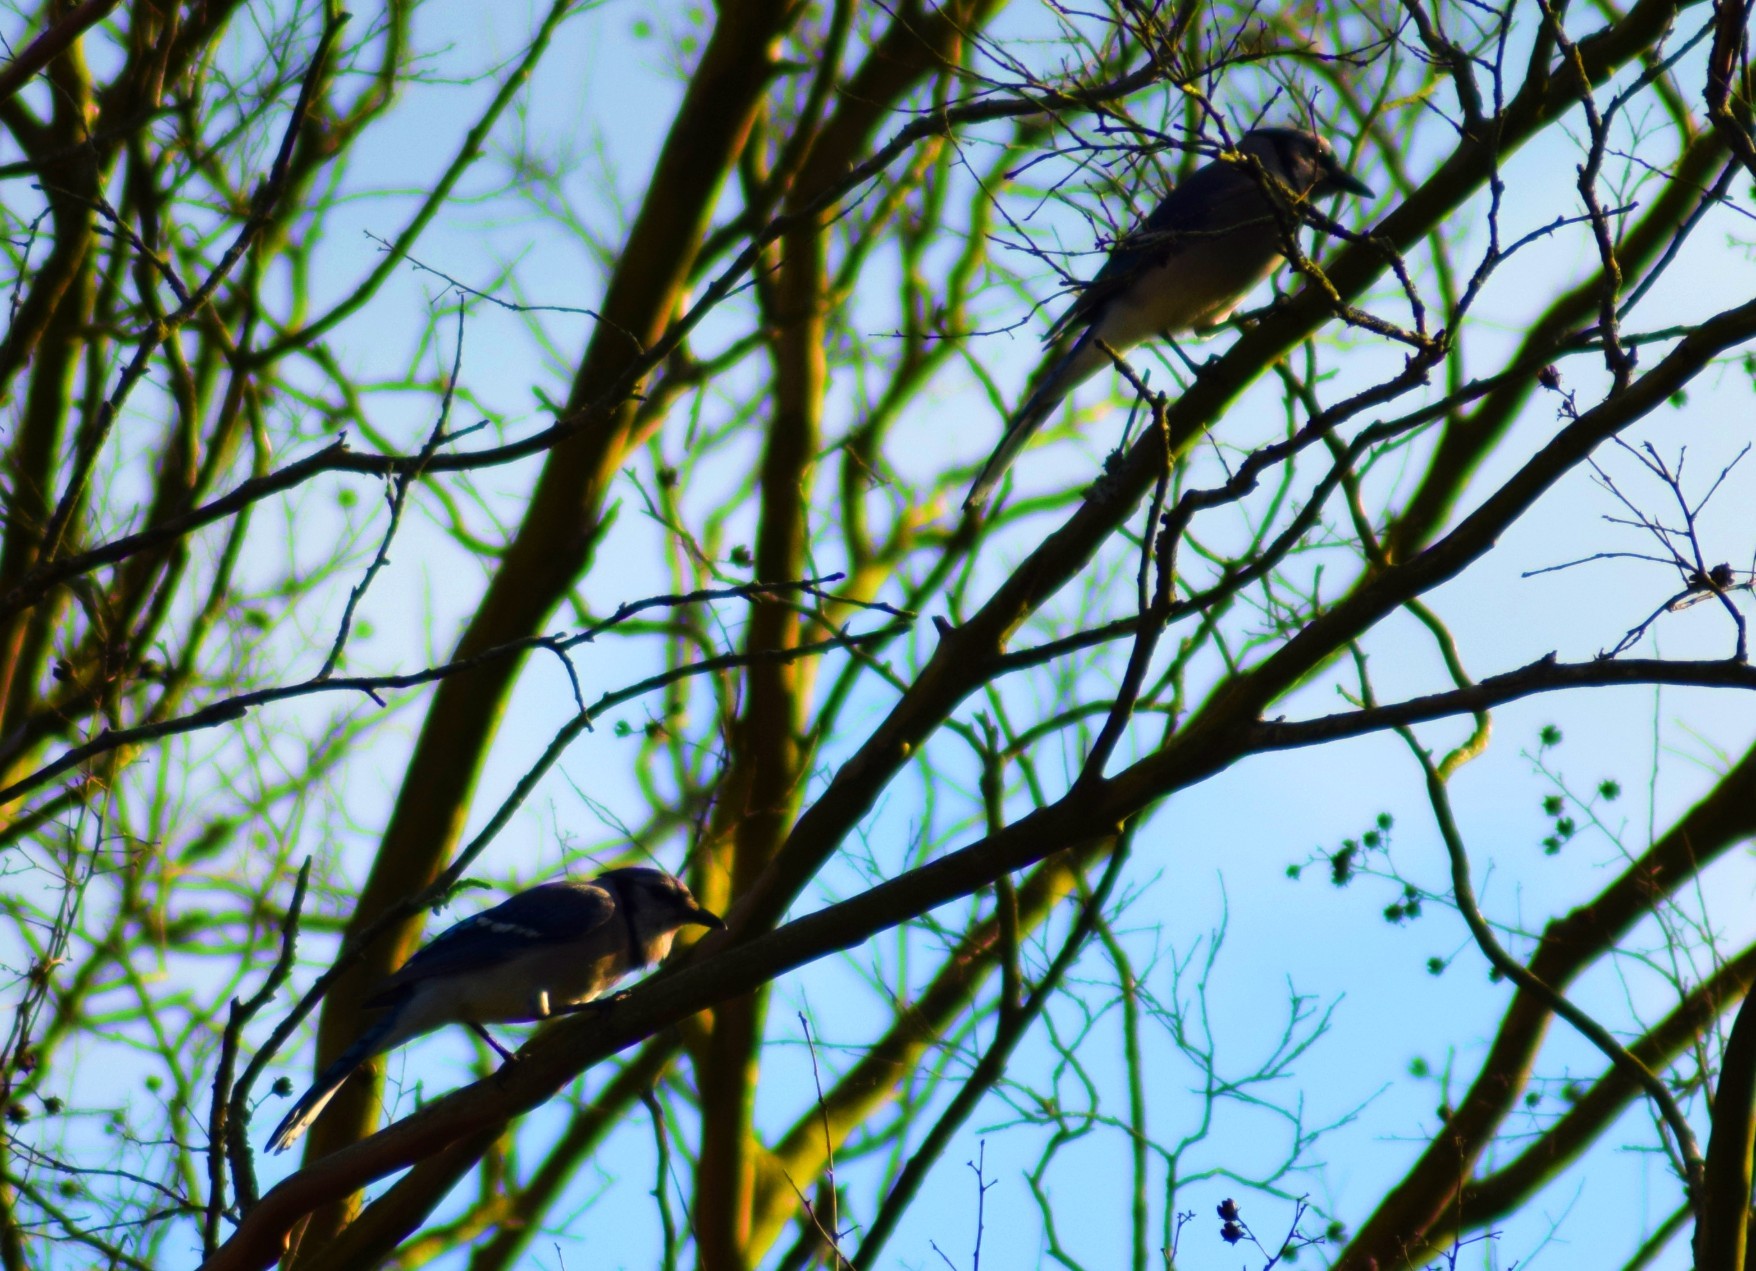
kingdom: Animalia
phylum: Chordata
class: Aves
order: Passeriformes
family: Corvidae
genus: Cyanocitta
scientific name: Cyanocitta cristata
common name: Blue jay
